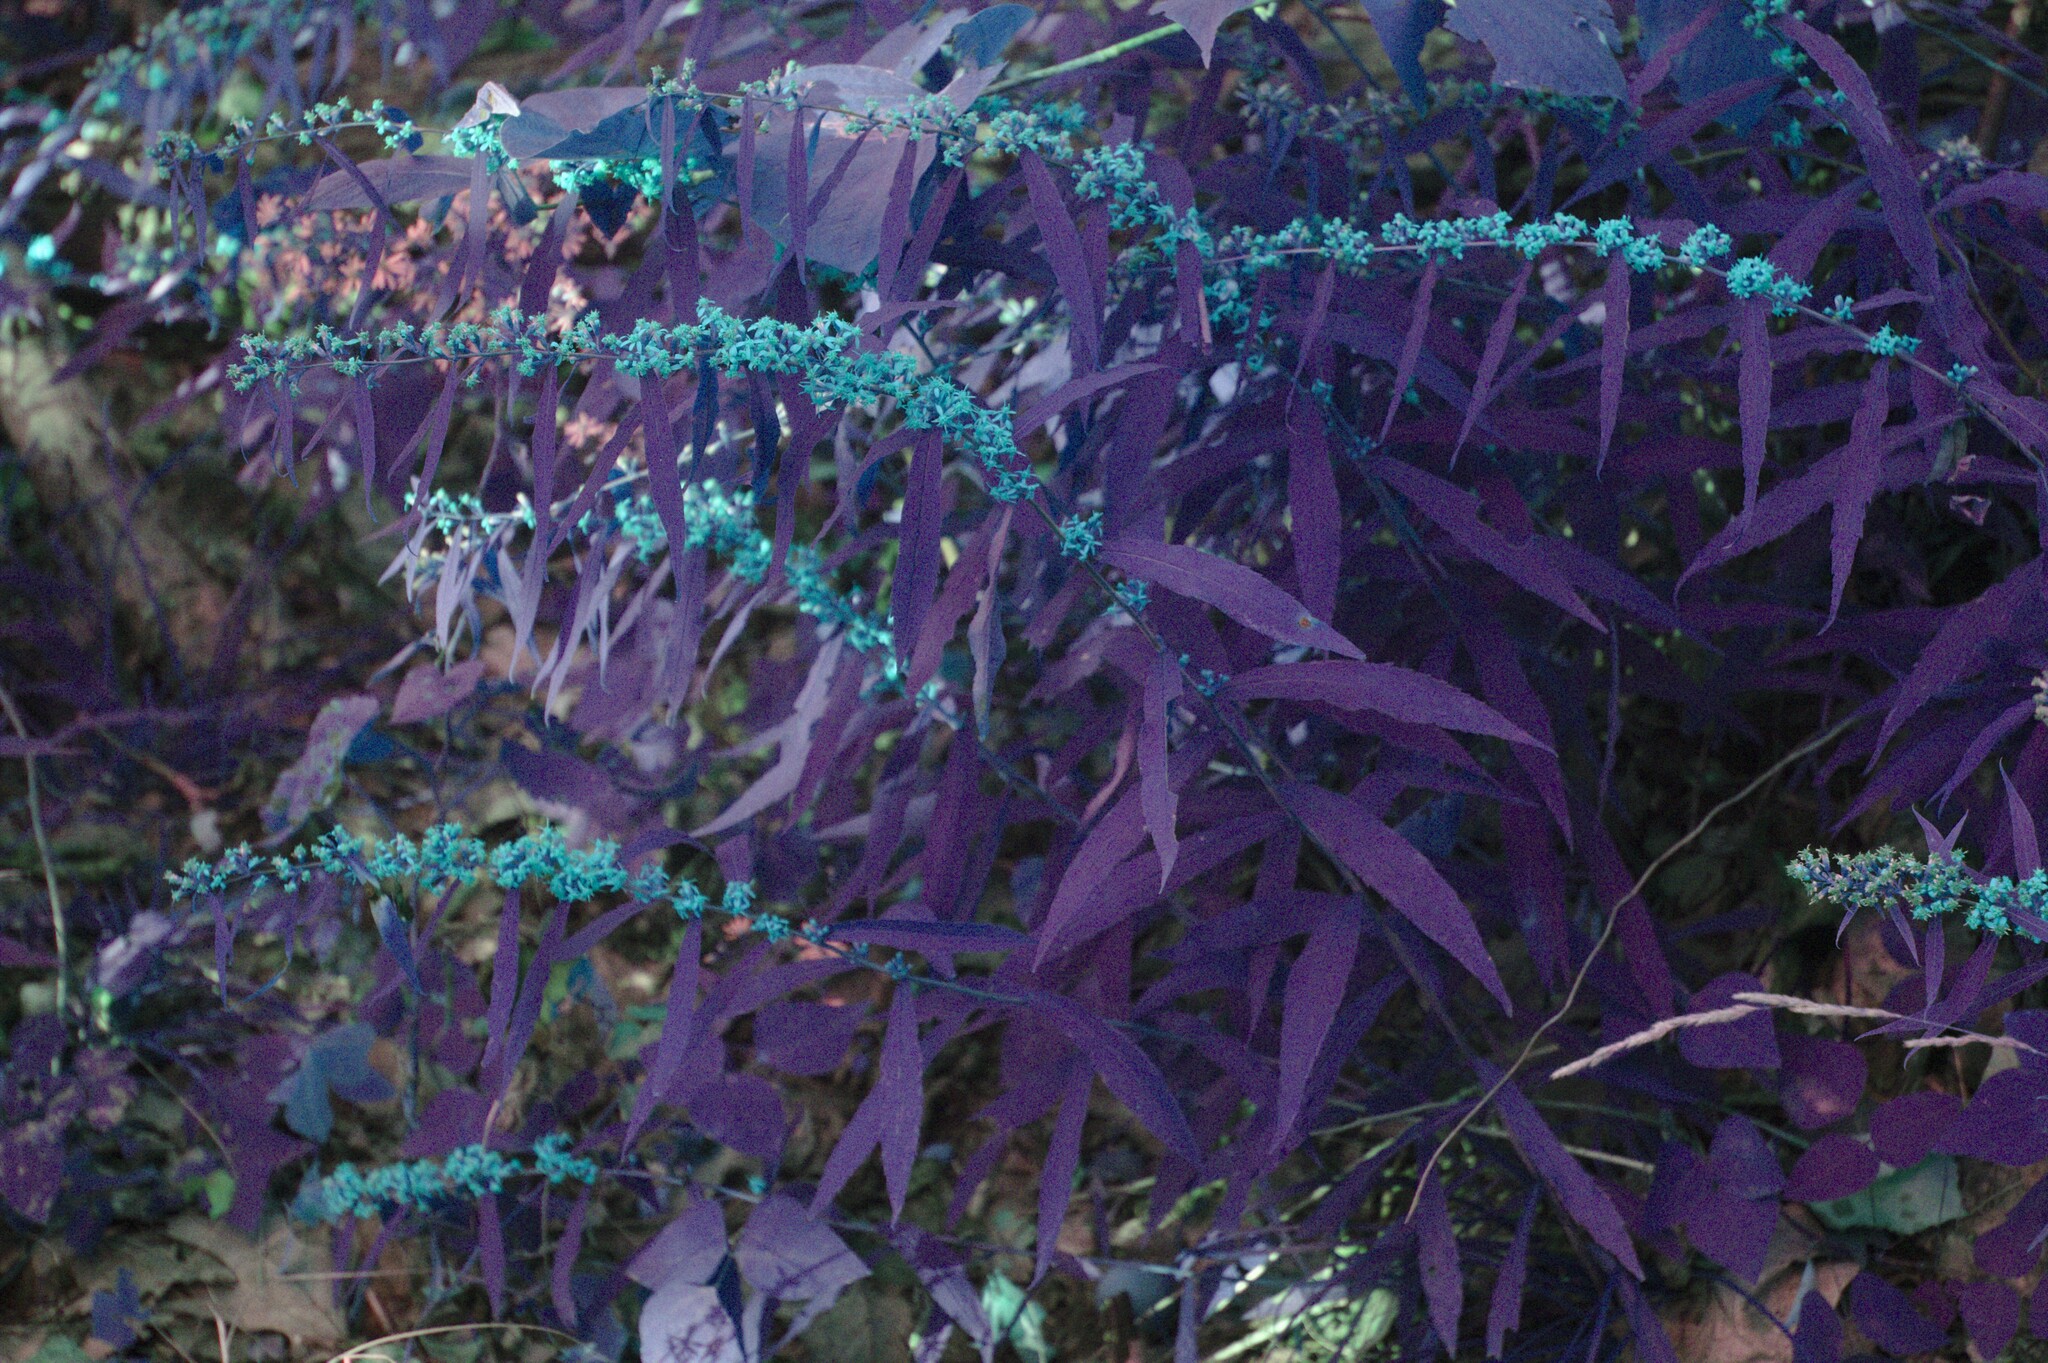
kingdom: Plantae
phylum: Tracheophyta
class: Magnoliopsida
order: Asterales
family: Asteraceae
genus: Solidago
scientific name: Solidago caesia
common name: Woodland goldenrod
